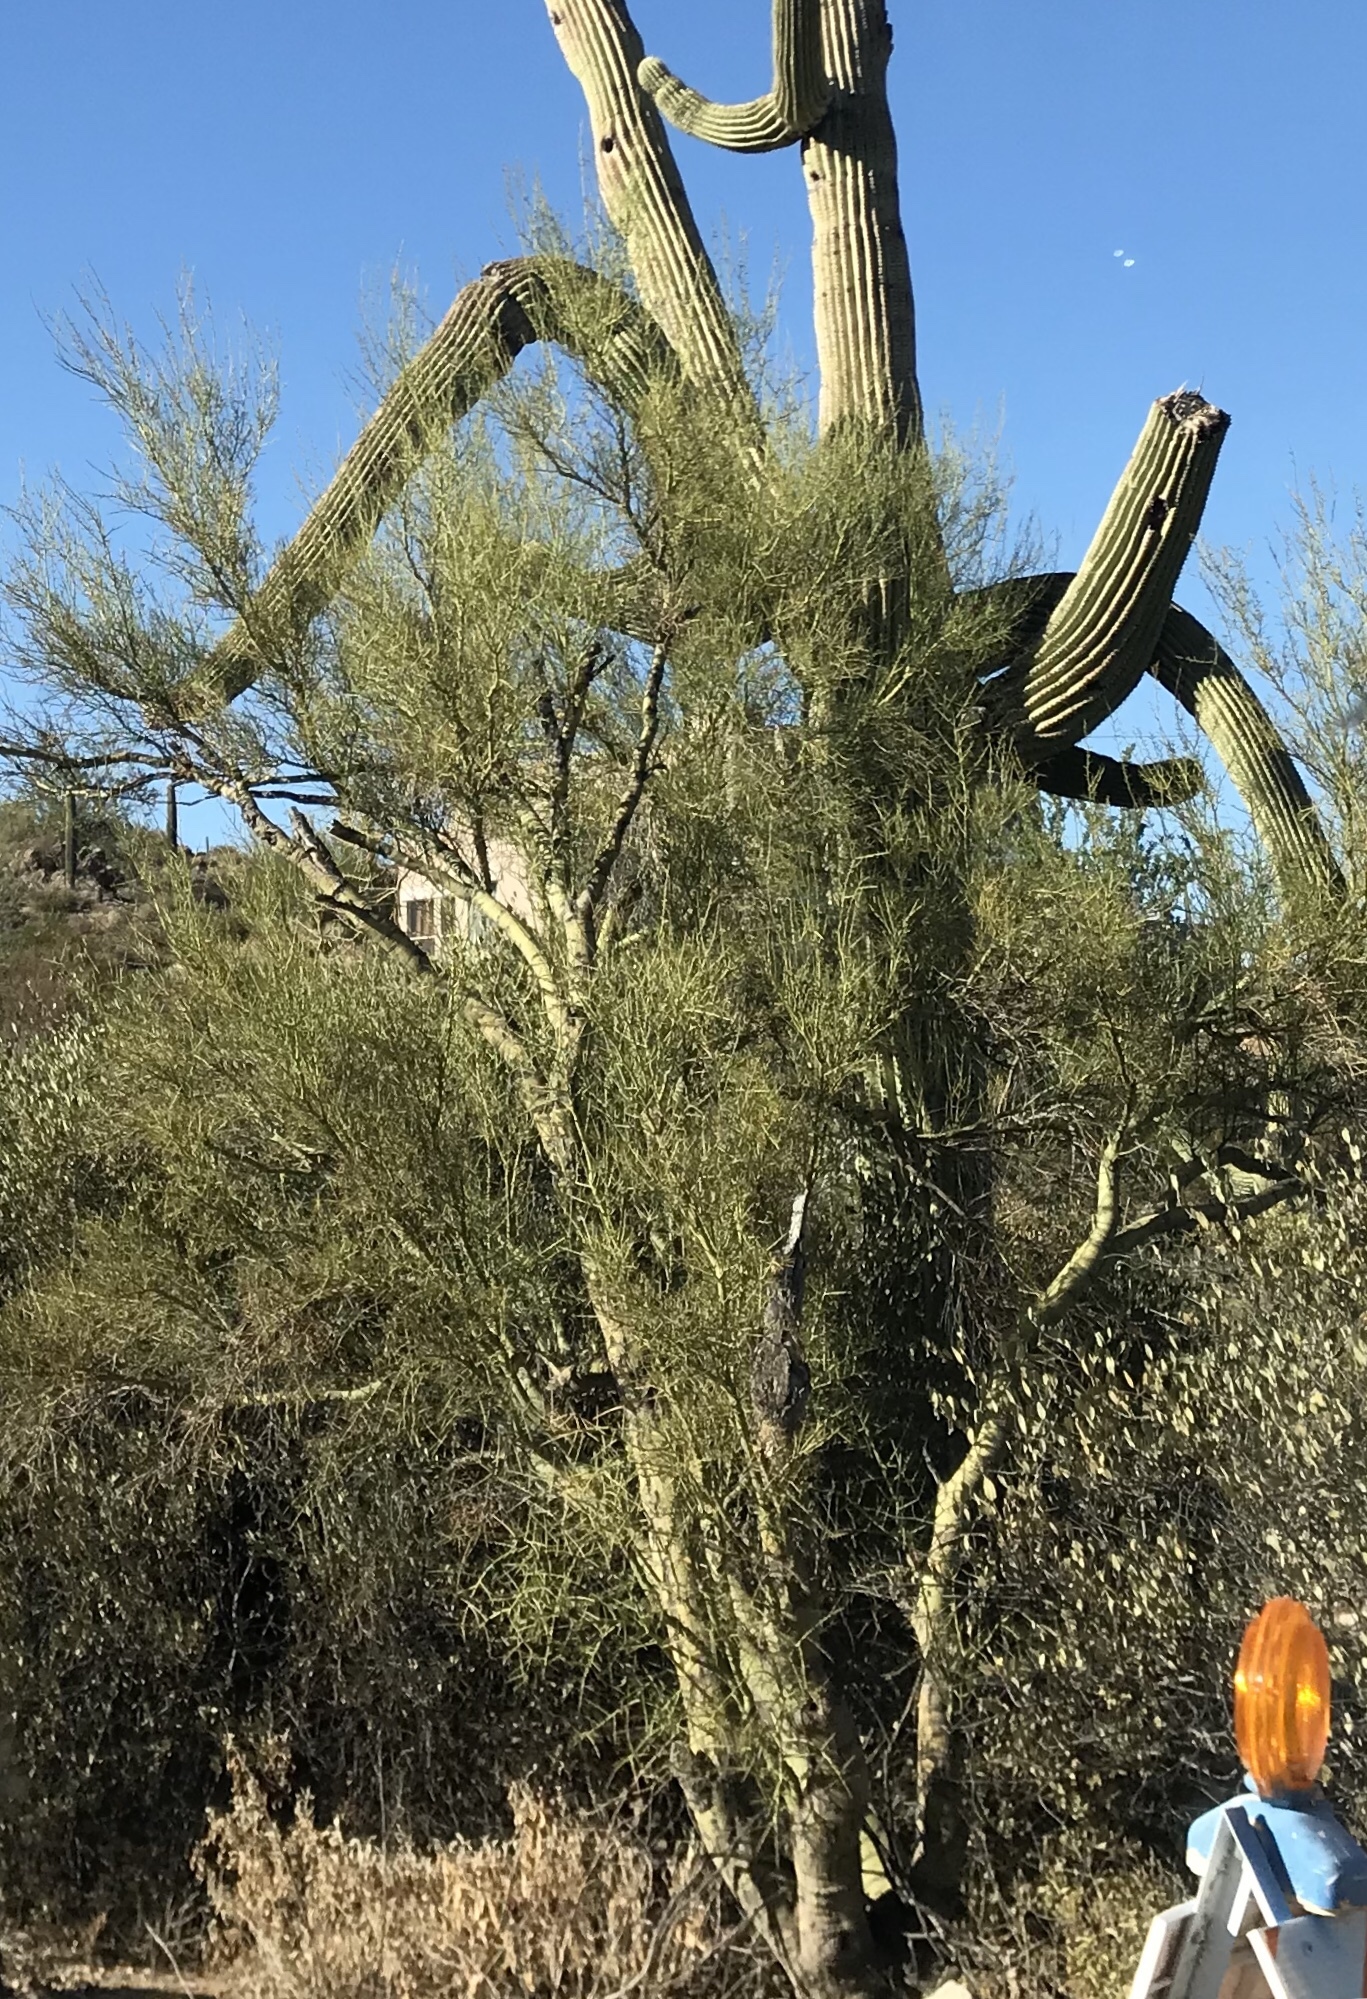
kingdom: Plantae
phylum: Tracheophyta
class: Magnoliopsida
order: Fabales
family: Fabaceae
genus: Parkinsonia
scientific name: Parkinsonia microphylla
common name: Yellow paloverde
